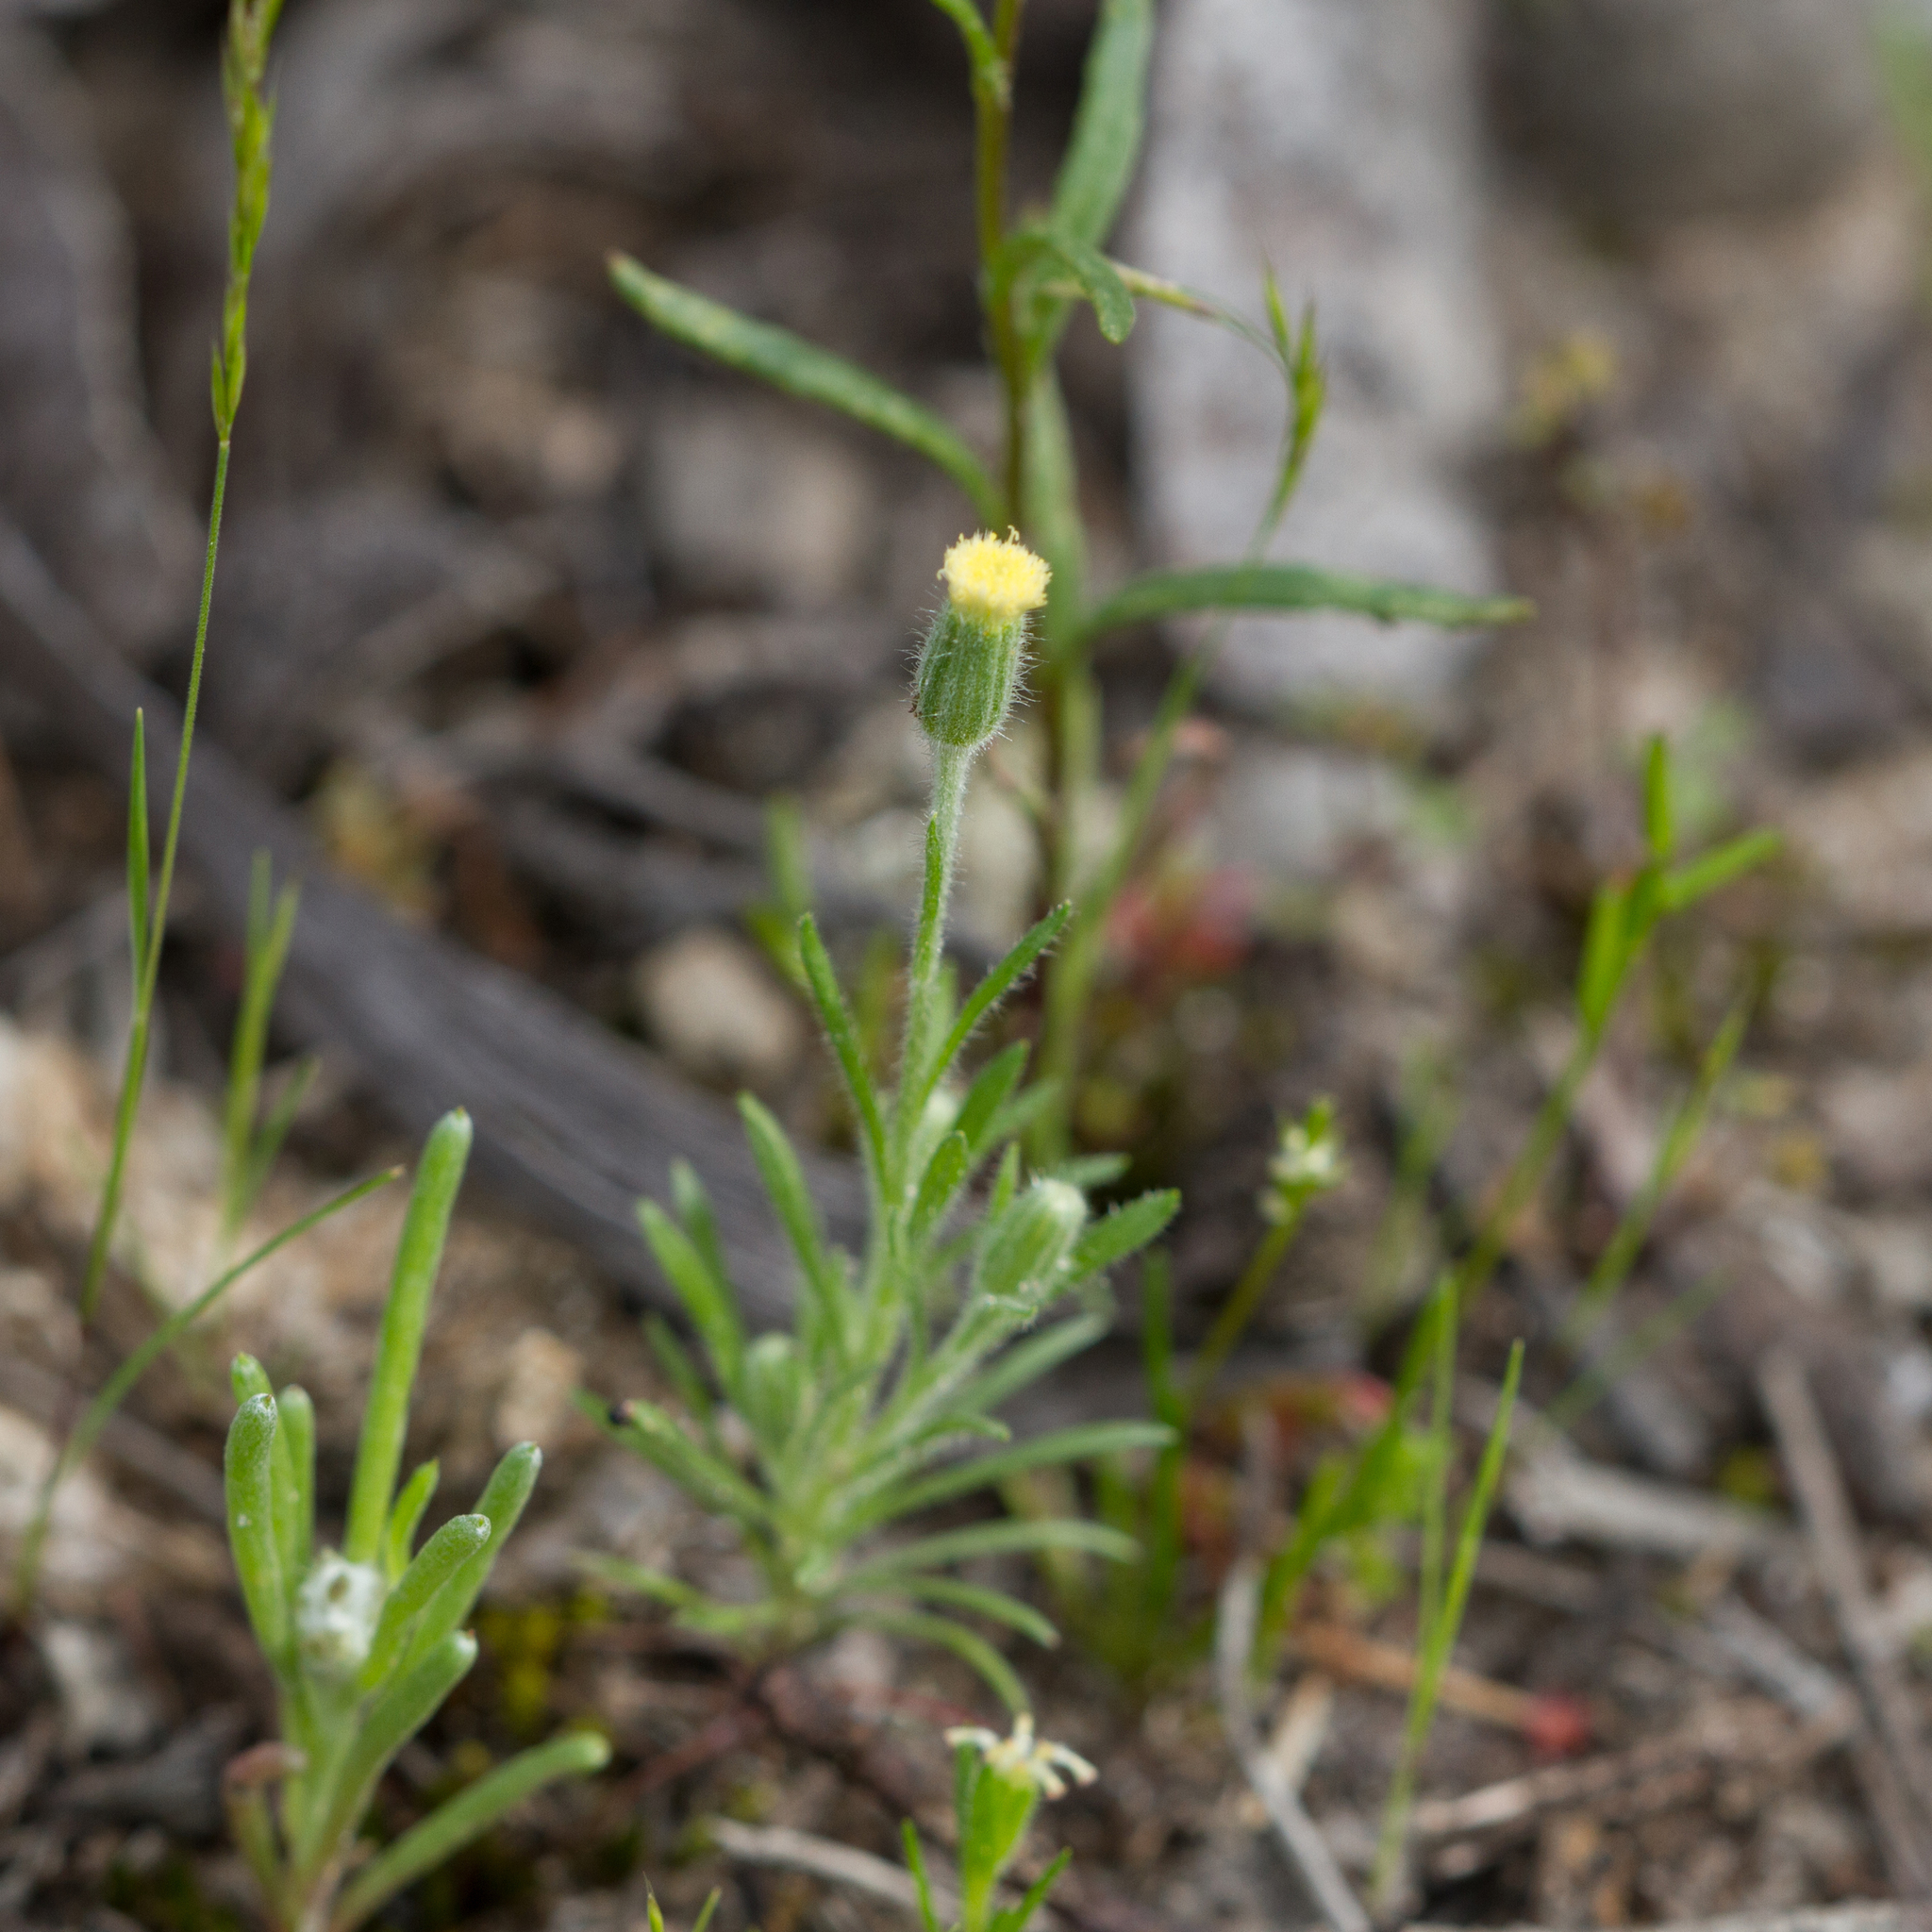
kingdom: Plantae
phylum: Tracheophyta
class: Magnoliopsida
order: Asterales
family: Asteraceae
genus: Millotia
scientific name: Millotia tenuifolia
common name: Soft millotia
